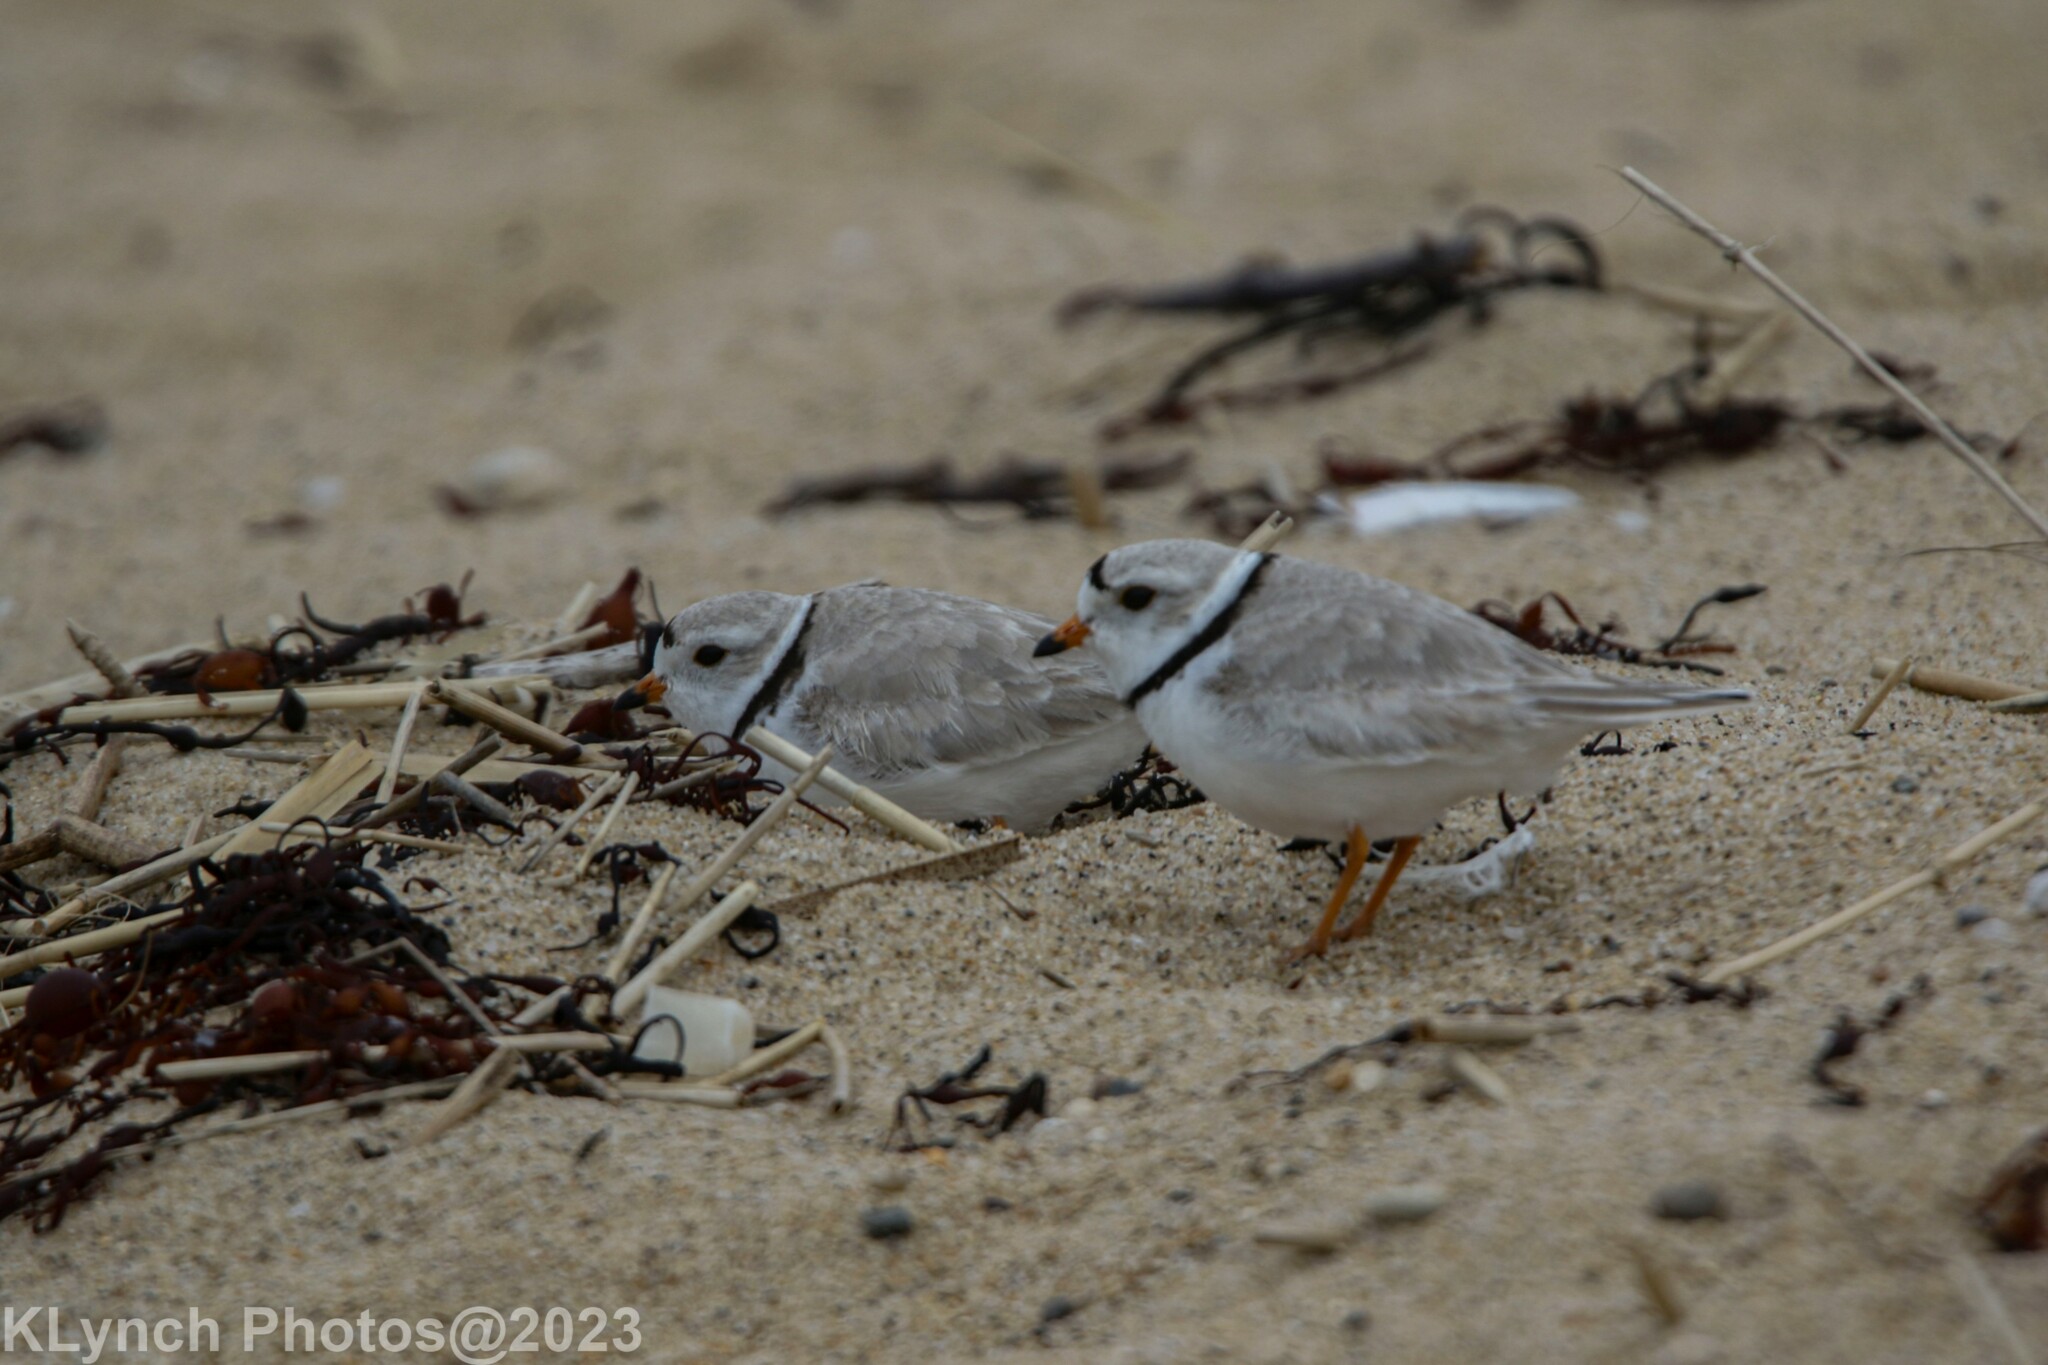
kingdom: Animalia
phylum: Chordata
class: Aves
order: Charadriiformes
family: Charadriidae
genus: Charadrius
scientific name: Charadrius melodus
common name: Piping plover
